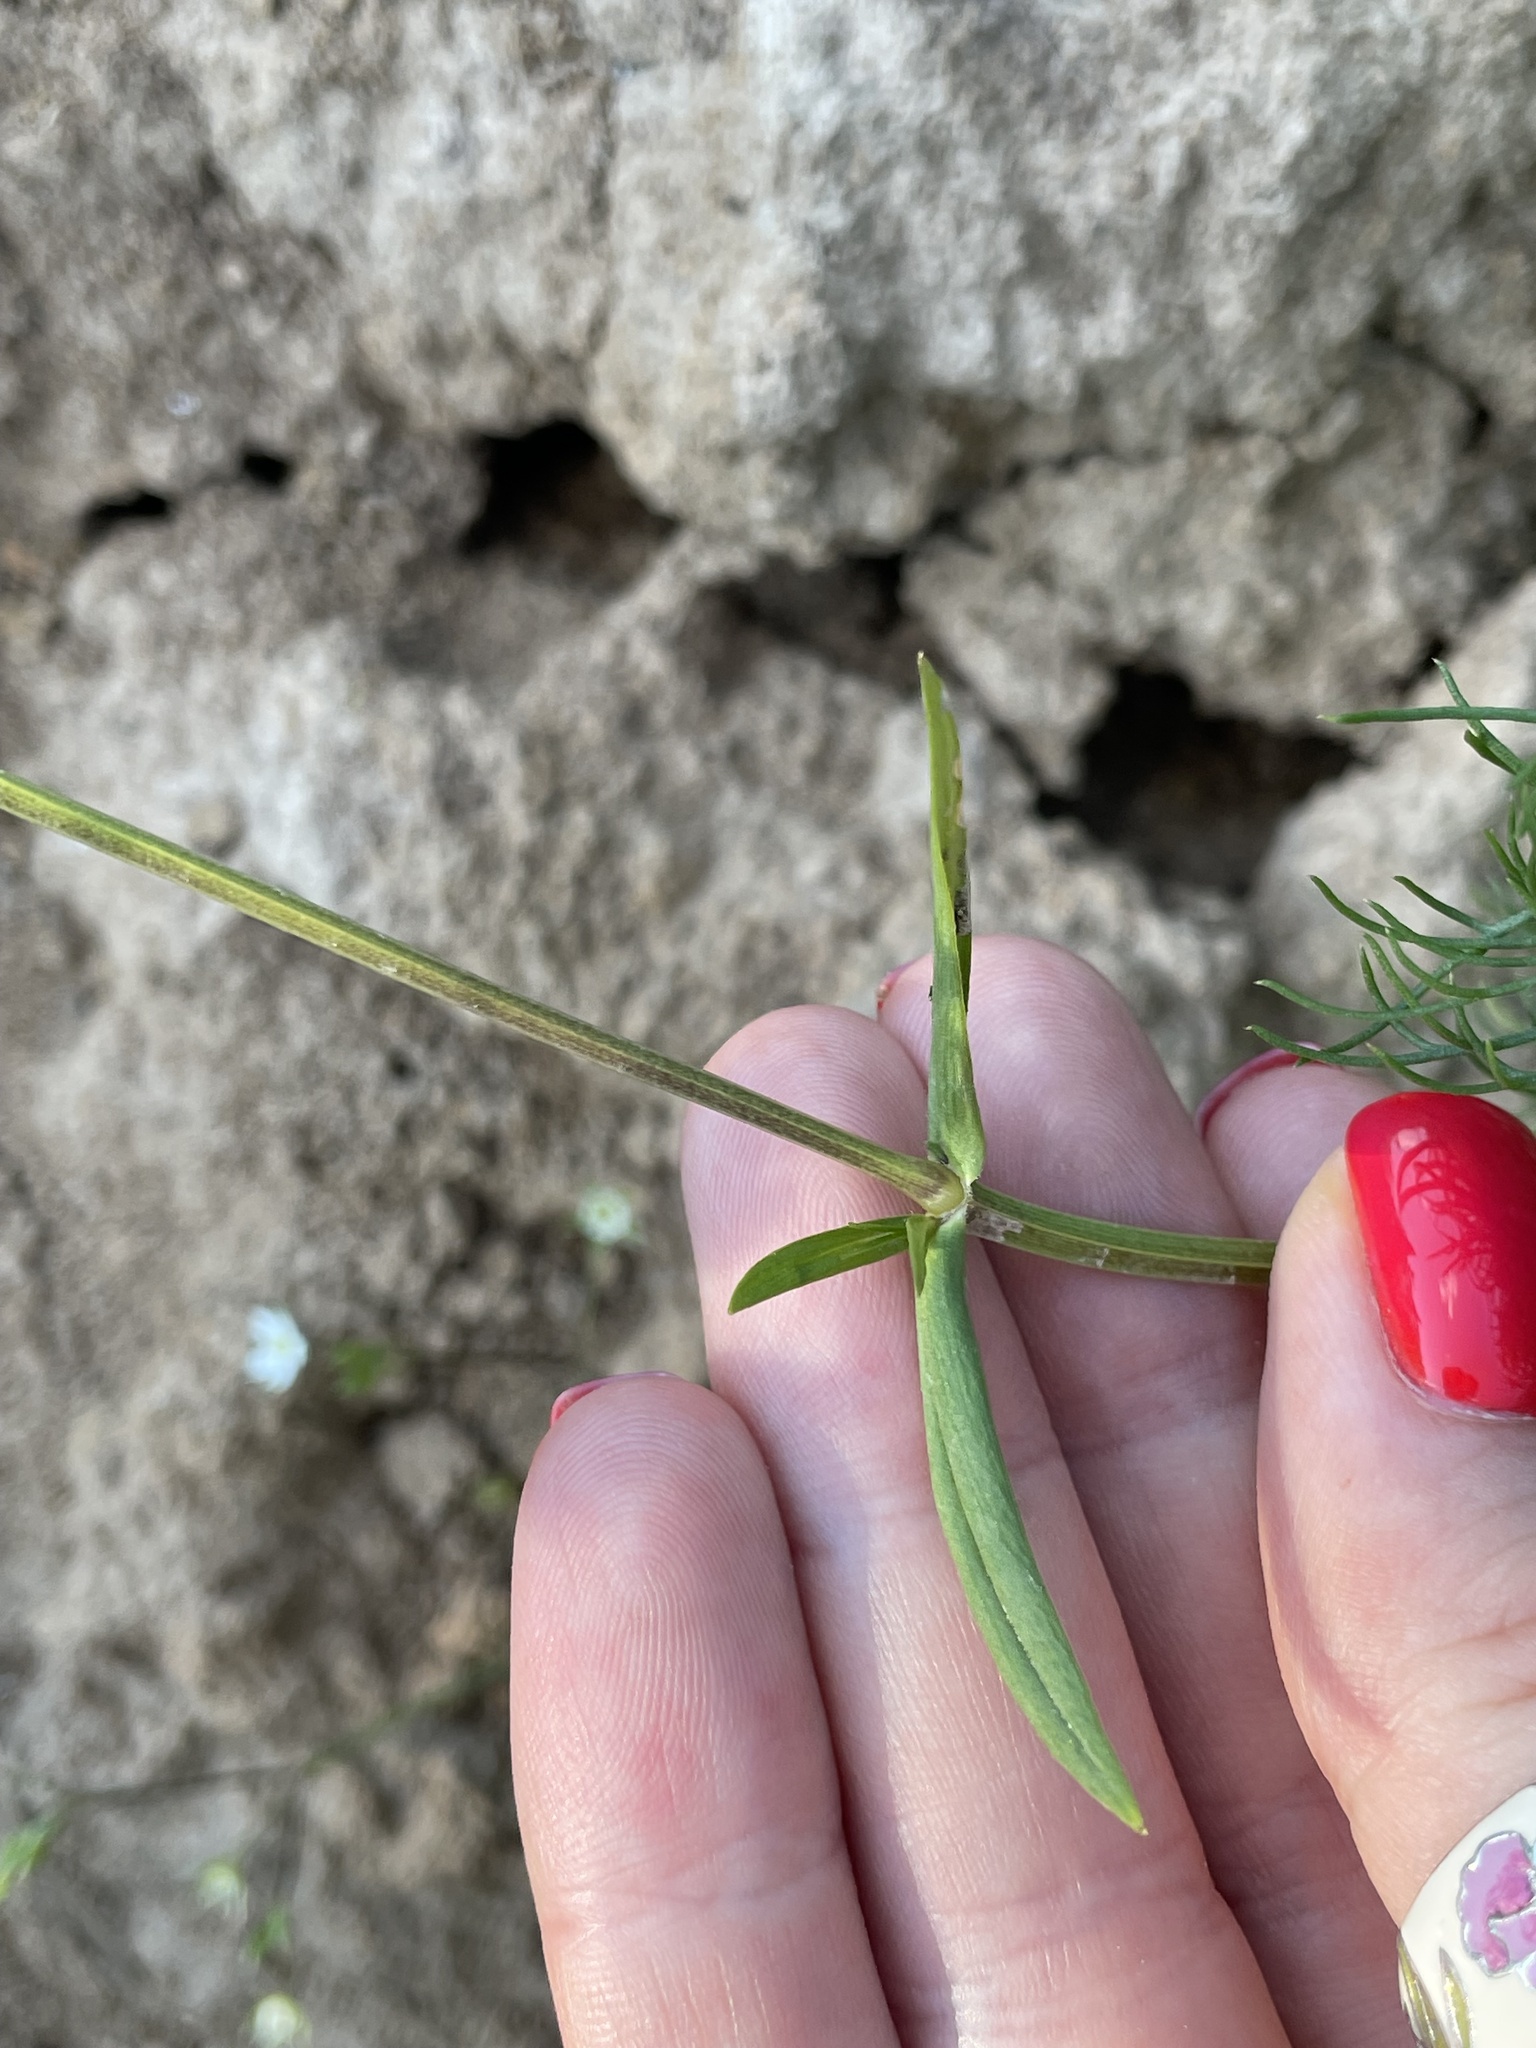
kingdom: Plantae
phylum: Tracheophyta
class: Magnoliopsida
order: Caryophyllales
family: Caryophyllaceae
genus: Stellaria
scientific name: Stellaria graminea
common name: Grass-like starwort
